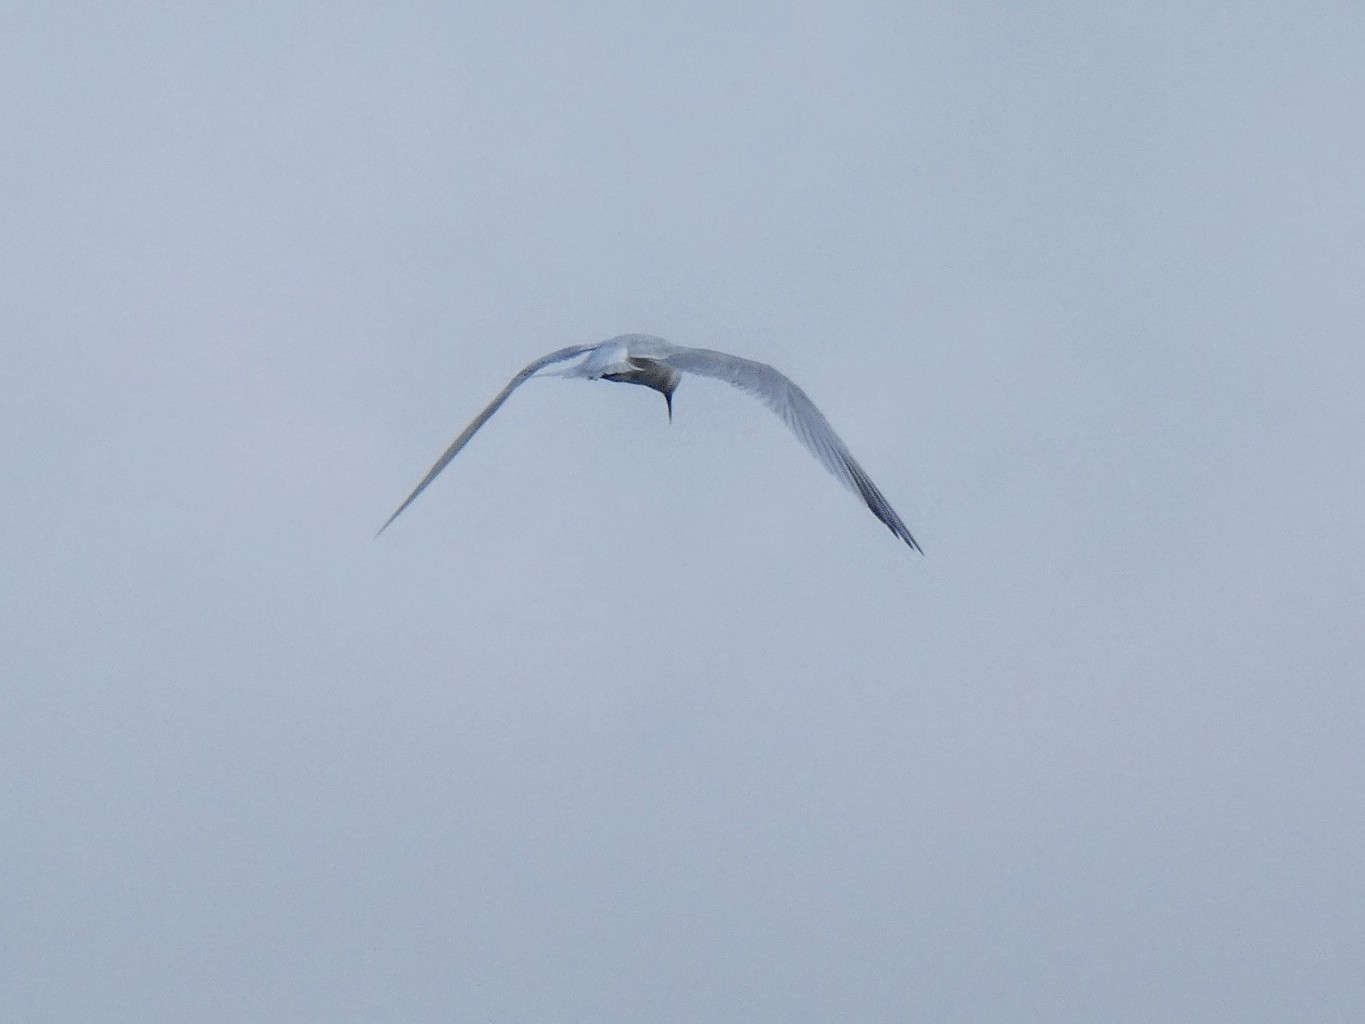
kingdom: Animalia
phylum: Chordata
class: Aves
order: Charadriiformes
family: Laridae
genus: Sterna
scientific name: Sterna hirundo
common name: Common tern
